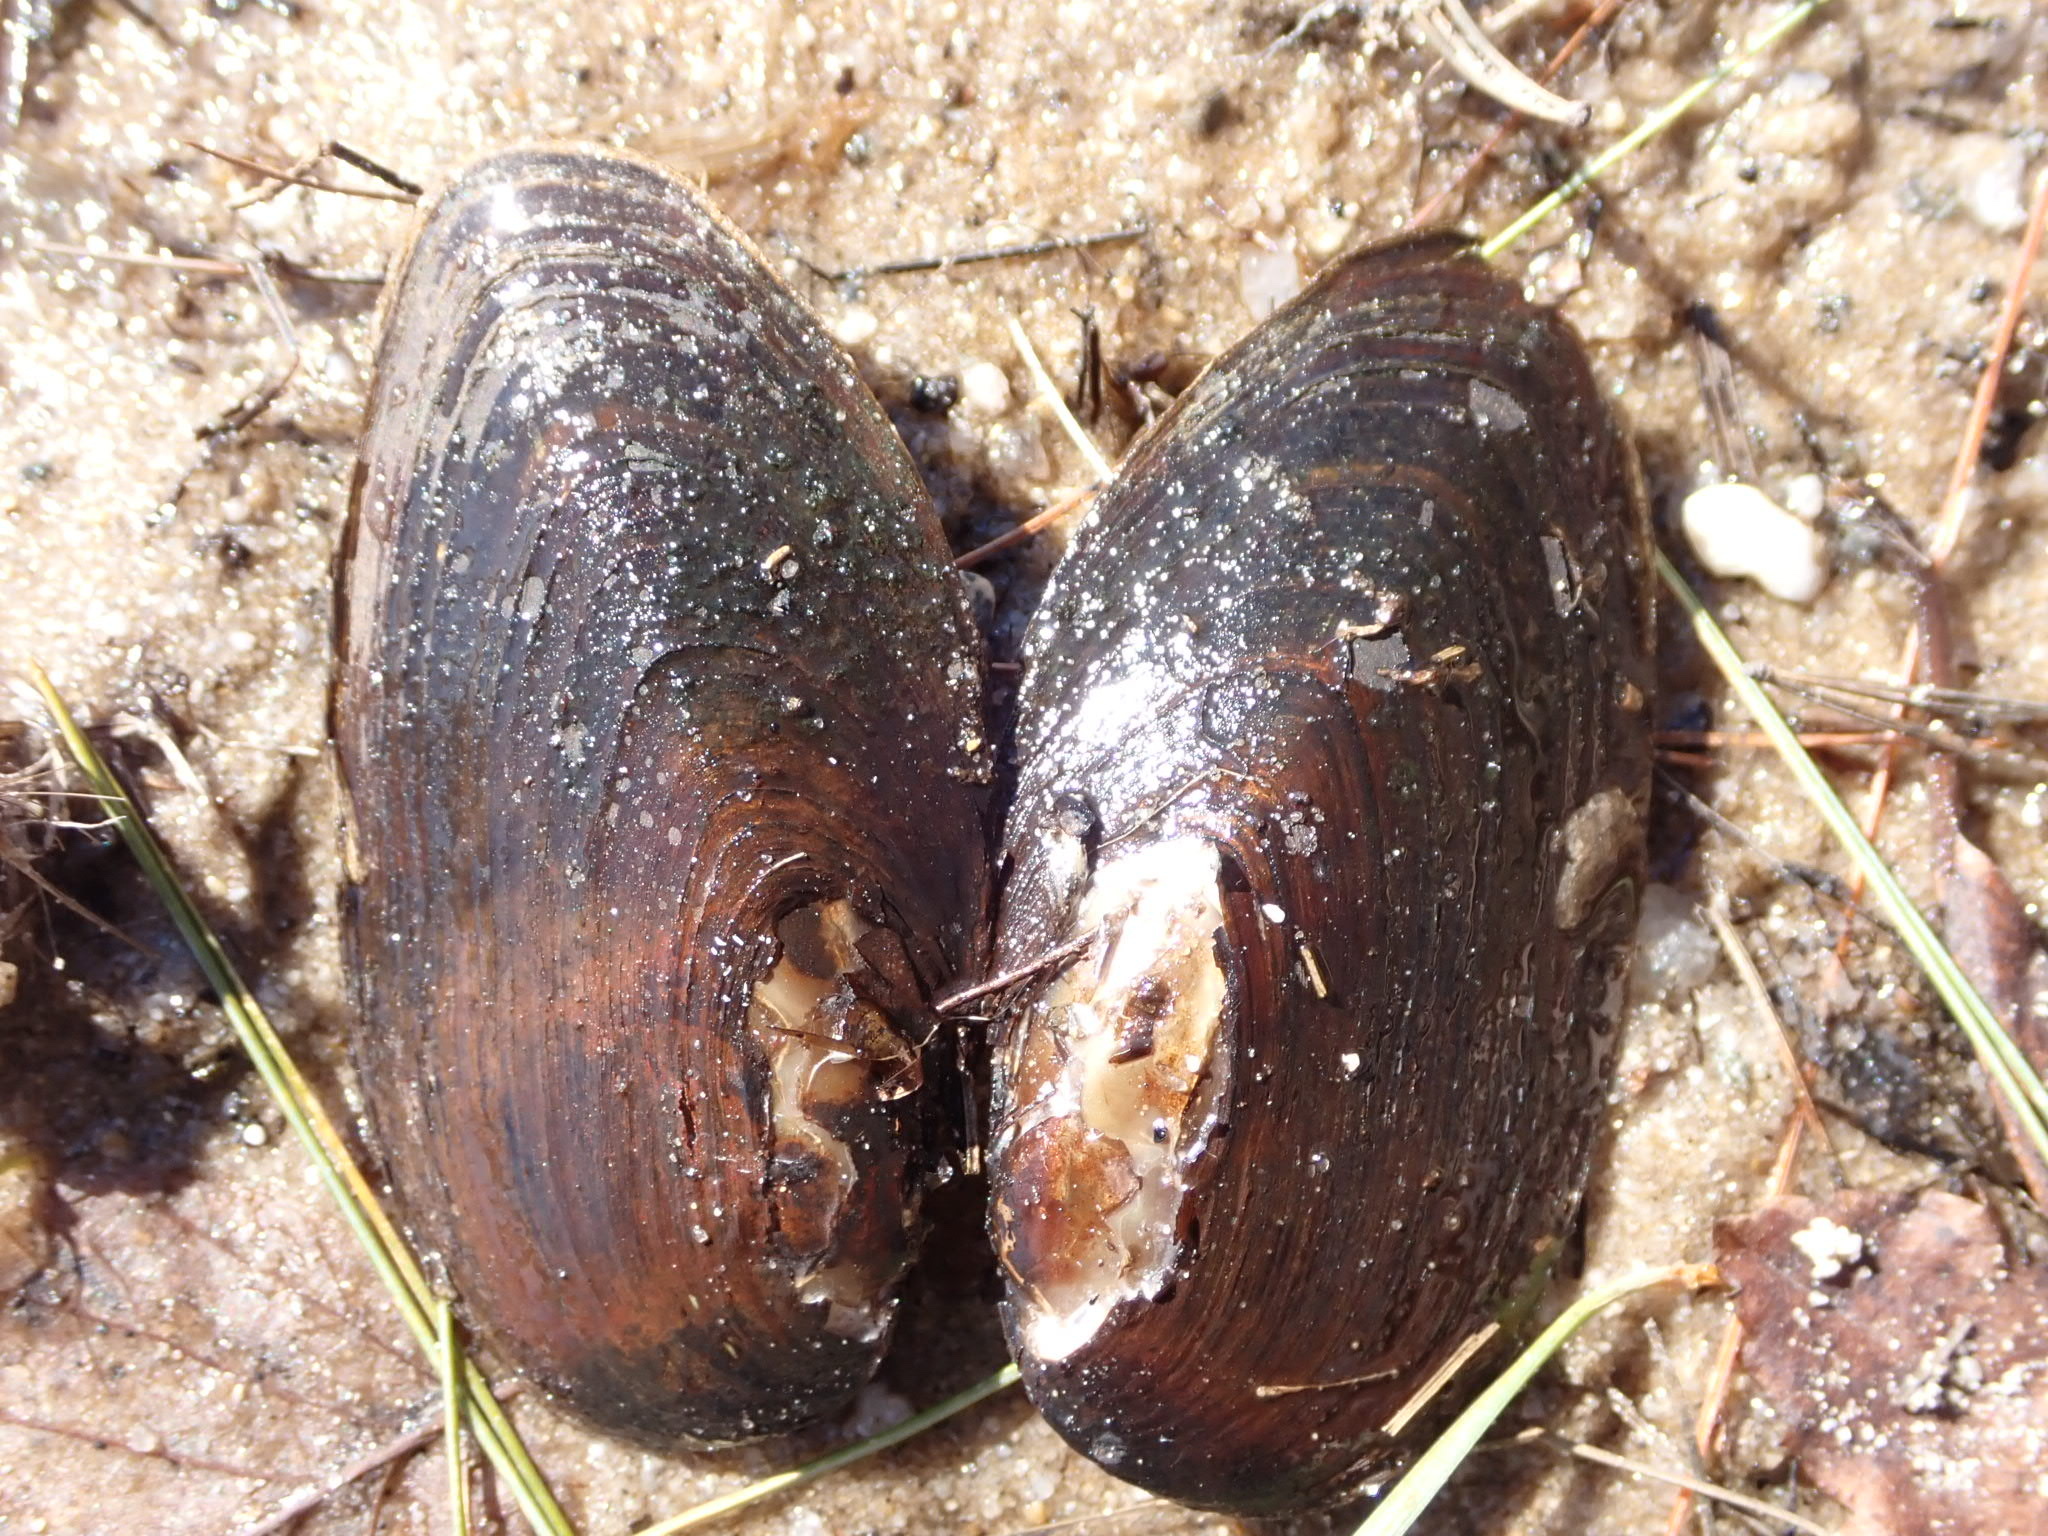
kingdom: Animalia
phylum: Mollusca
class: Bivalvia
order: Unionida
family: Unionidae
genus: Elliptio
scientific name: Elliptio complanata
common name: Eastern elliptio
